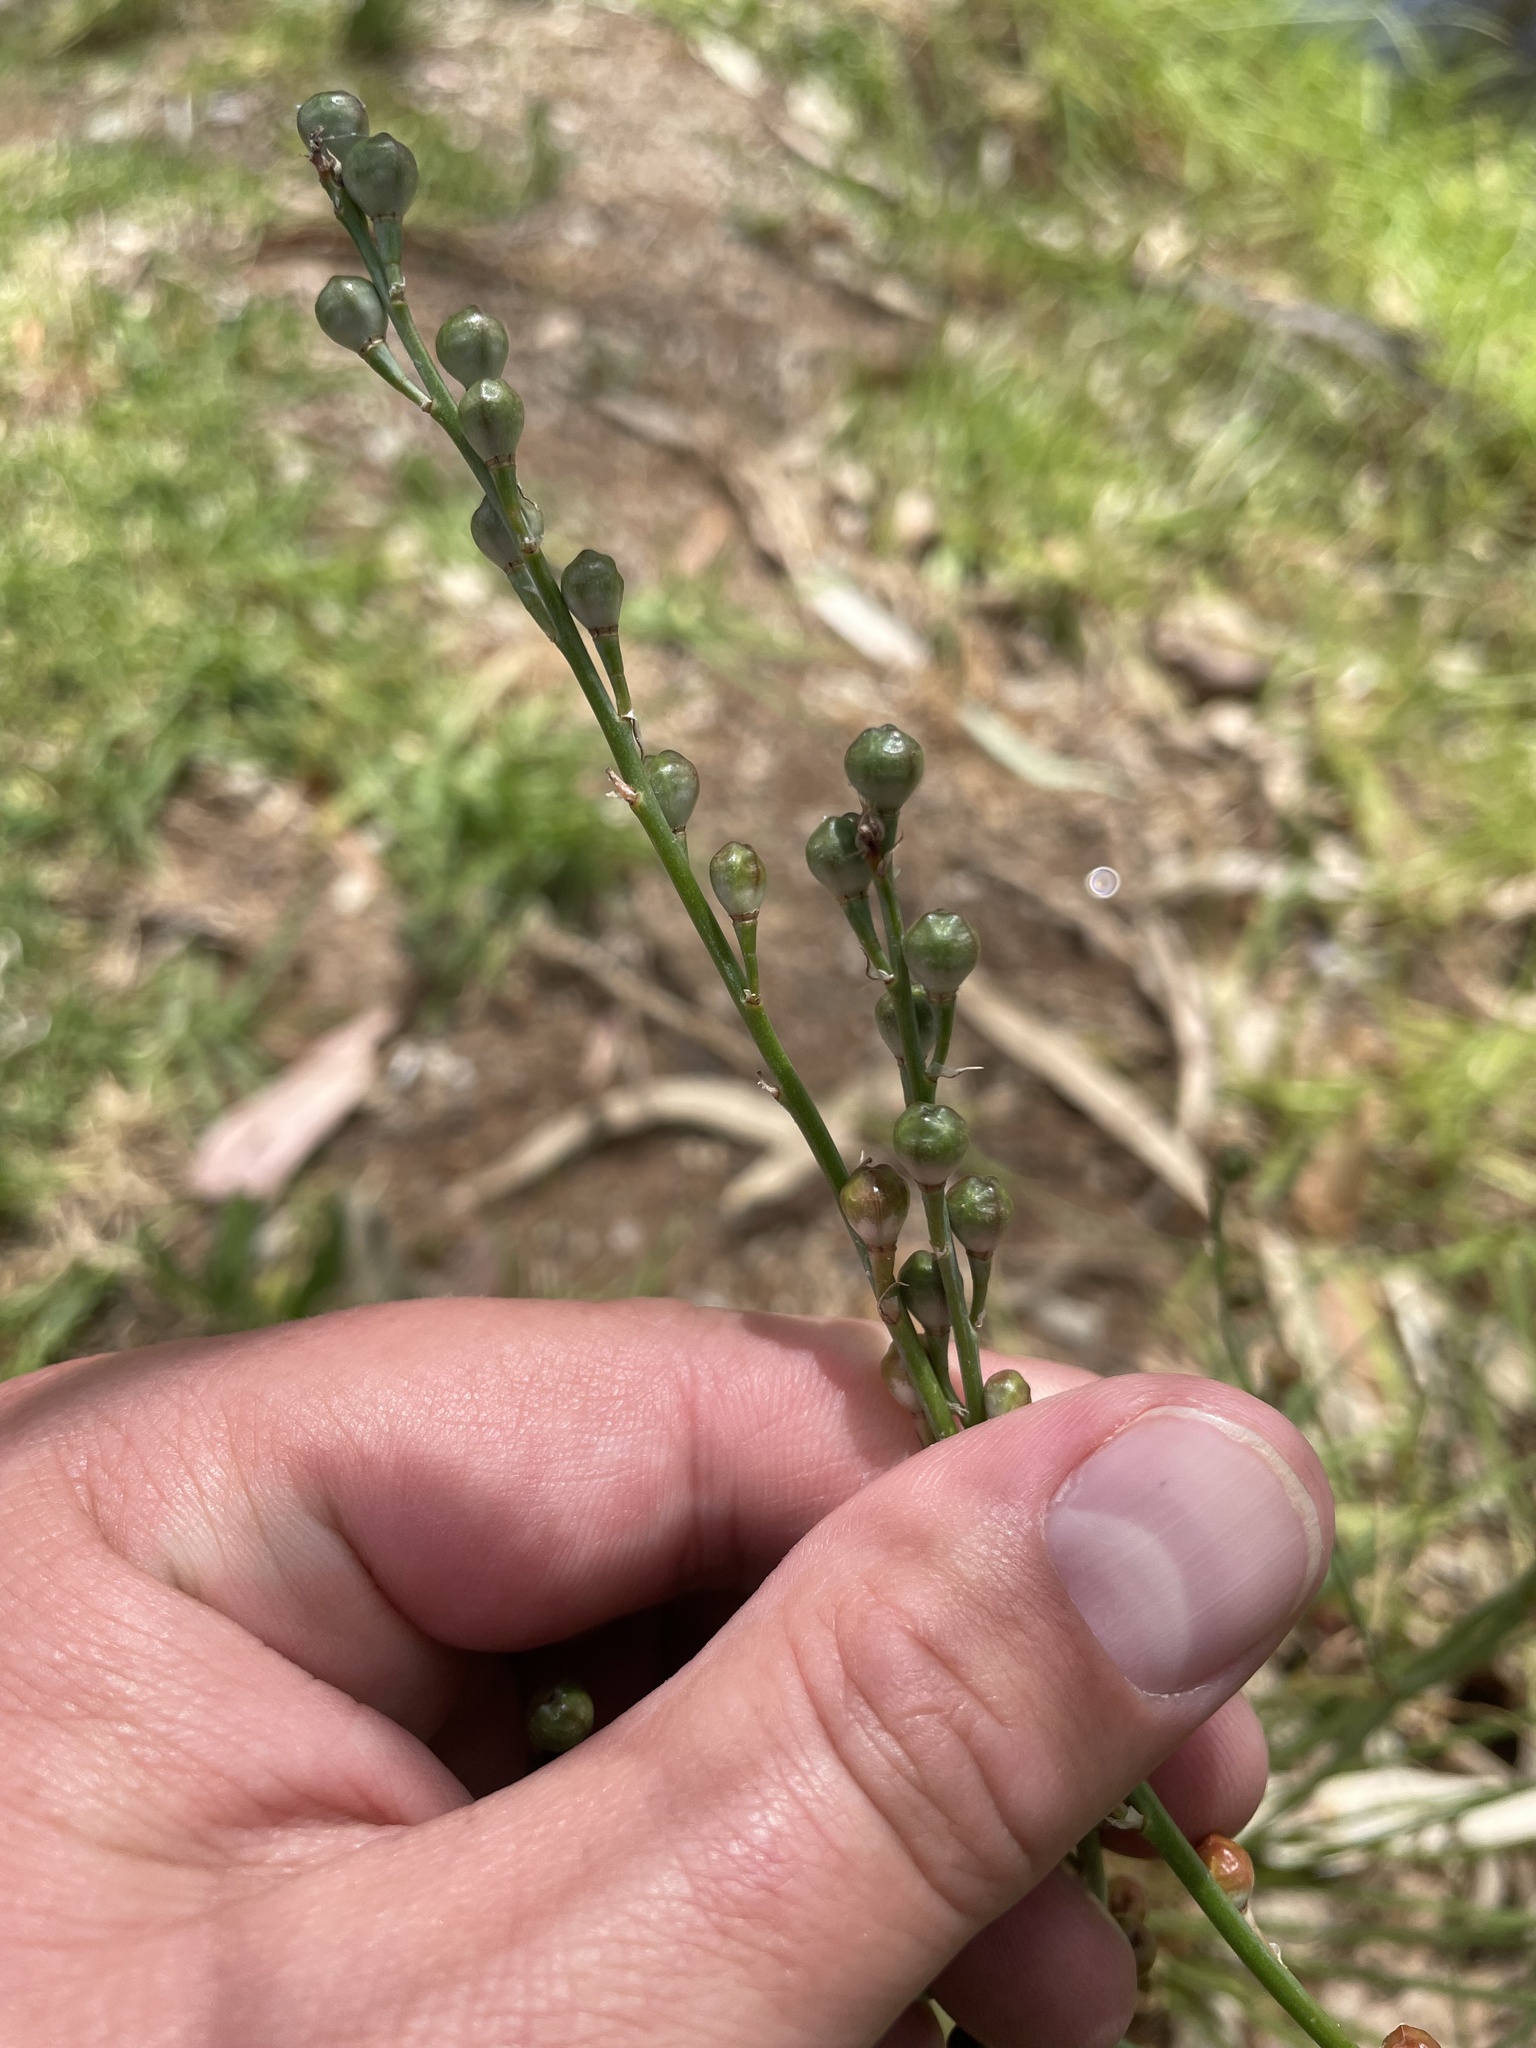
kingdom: Plantae
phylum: Tracheophyta
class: Liliopsida
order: Asparagales
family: Asphodelaceae
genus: Asphodelus
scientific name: Asphodelus fistulosus
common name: Onionweed
